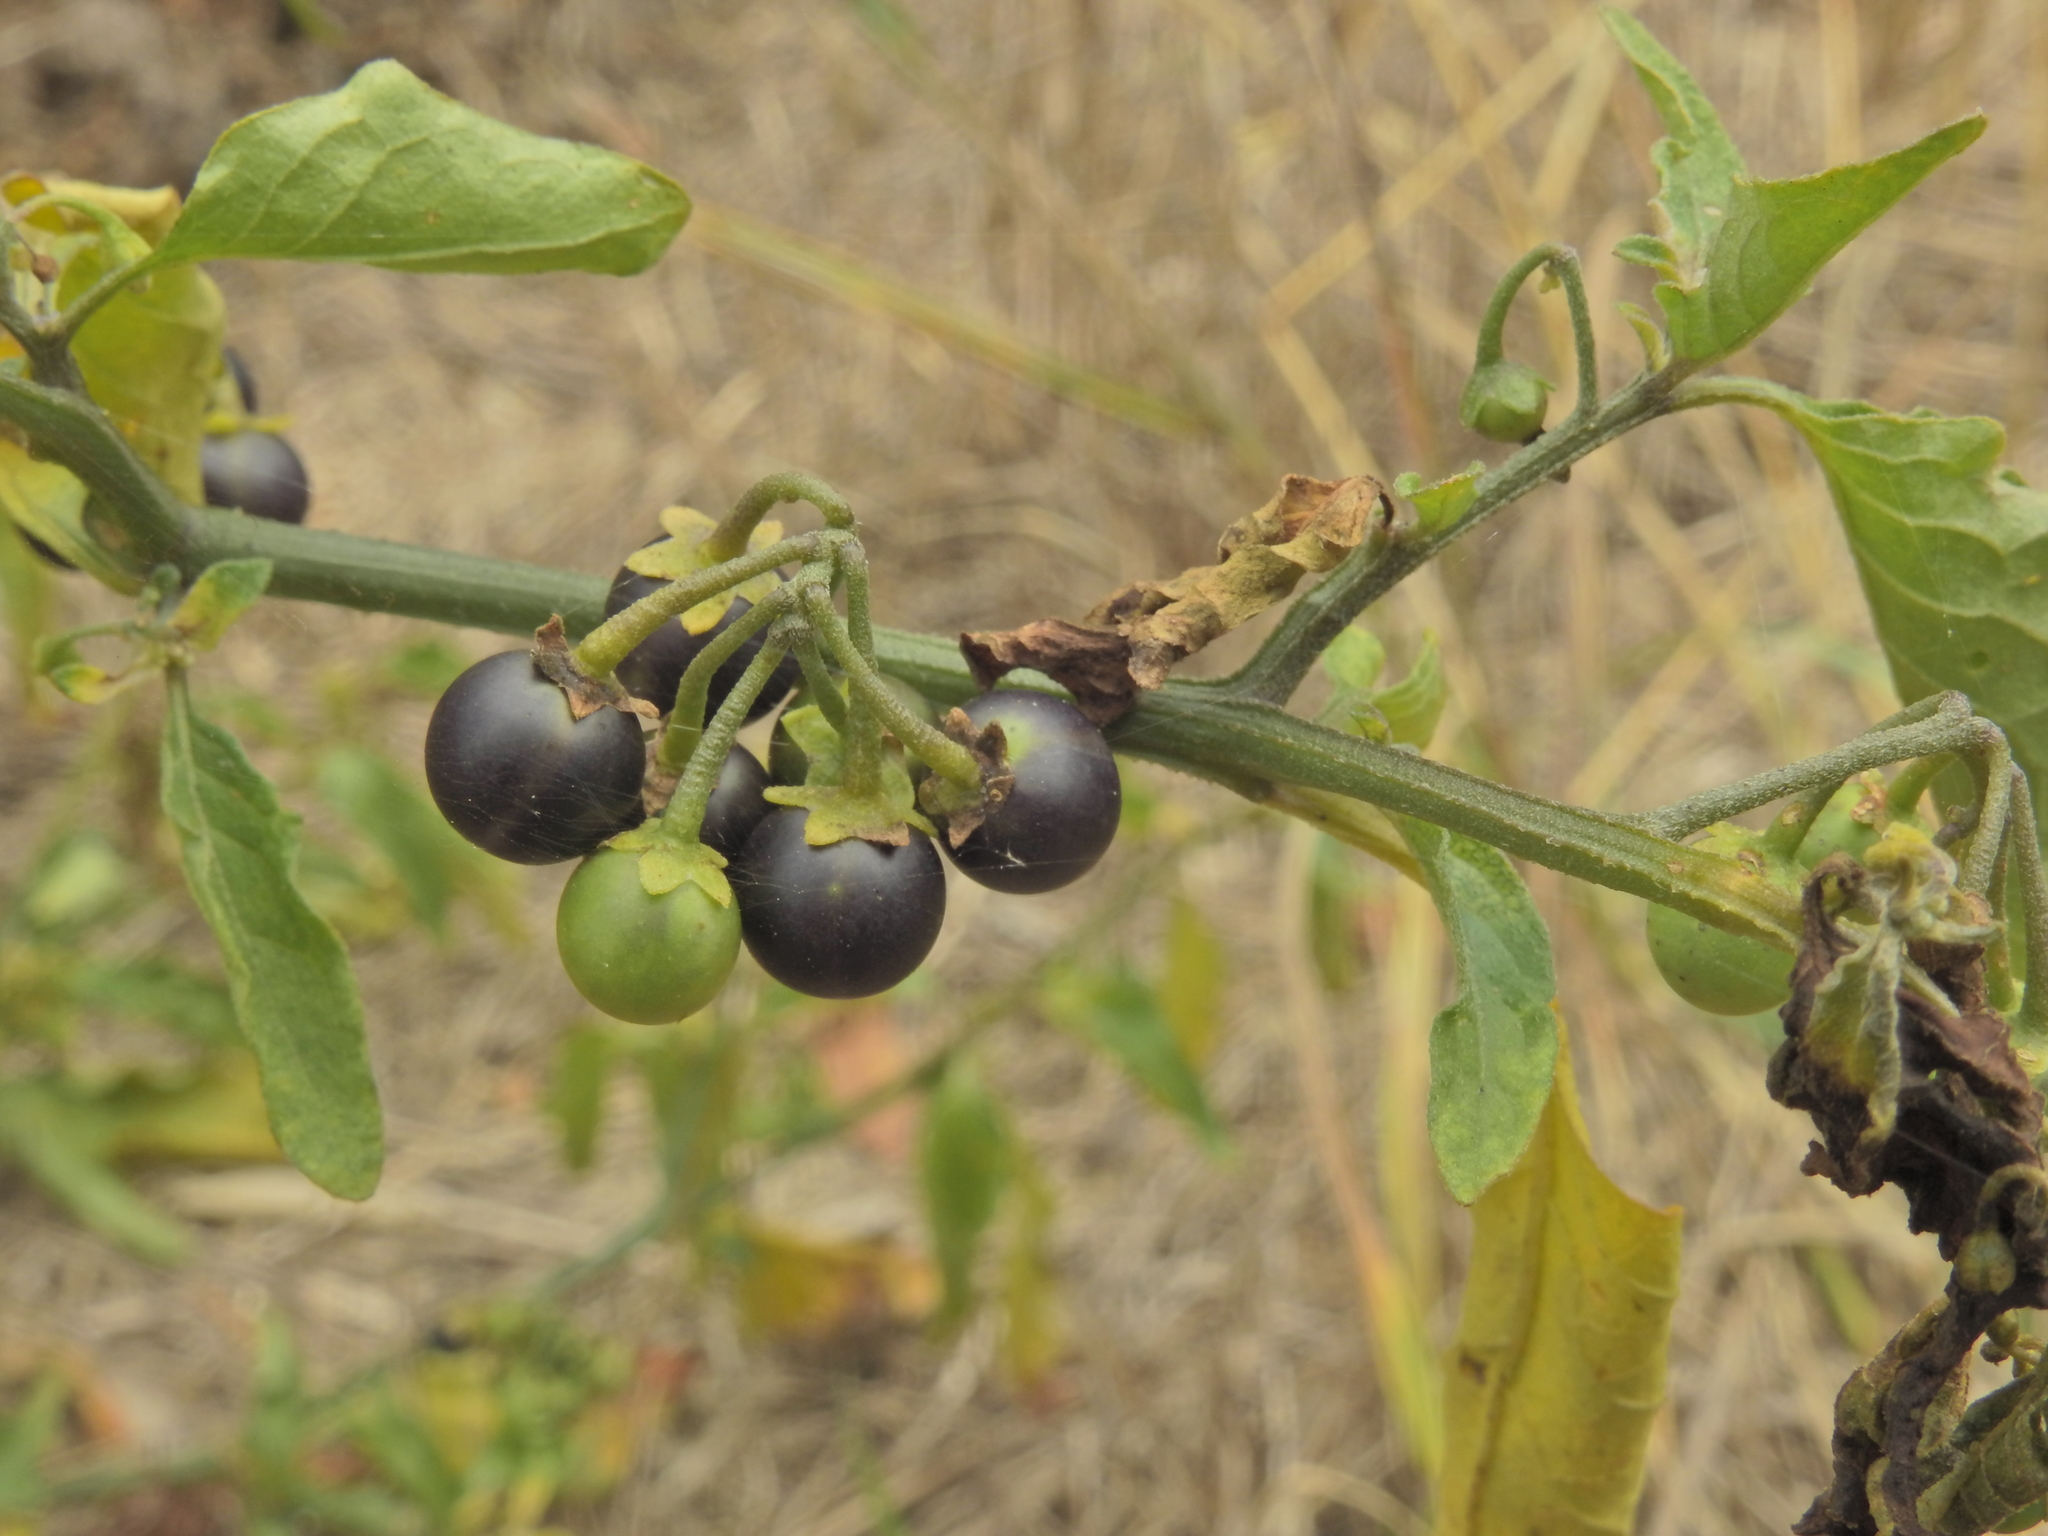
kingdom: Plantae
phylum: Tracheophyta
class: Magnoliopsida
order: Solanales
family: Solanaceae
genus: Solanum
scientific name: Solanum nigrum
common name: Black nightshade
